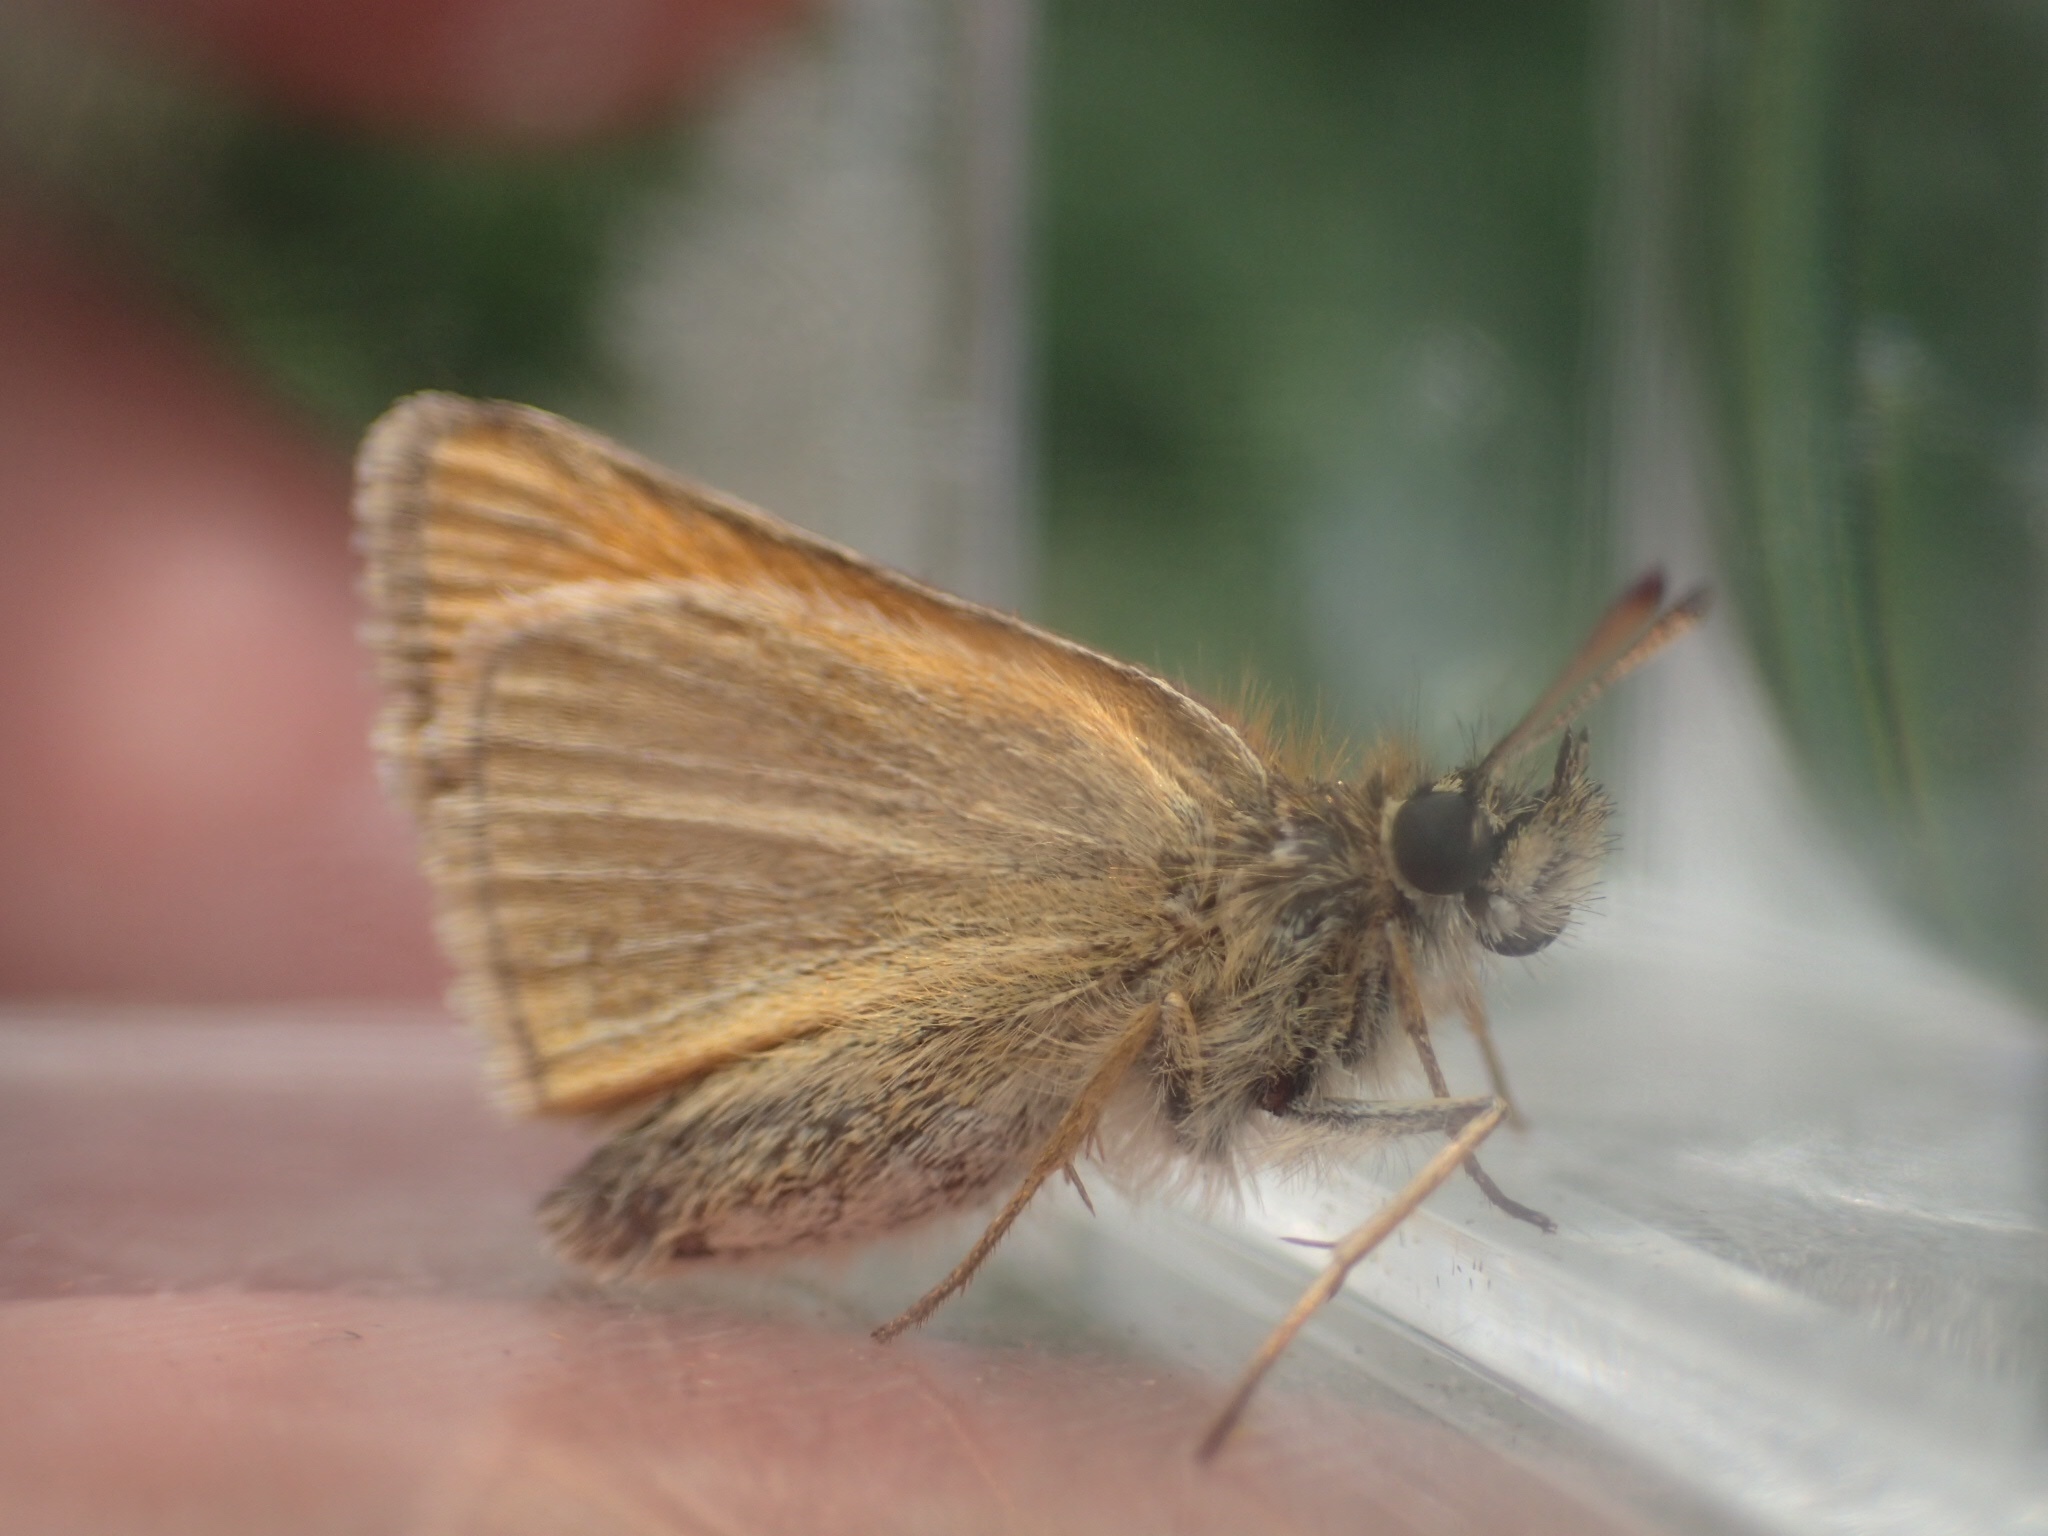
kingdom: Animalia
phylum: Arthropoda
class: Insecta
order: Lepidoptera
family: Hesperiidae
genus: Thymelicus
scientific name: Thymelicus lineola
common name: Essex skipper
